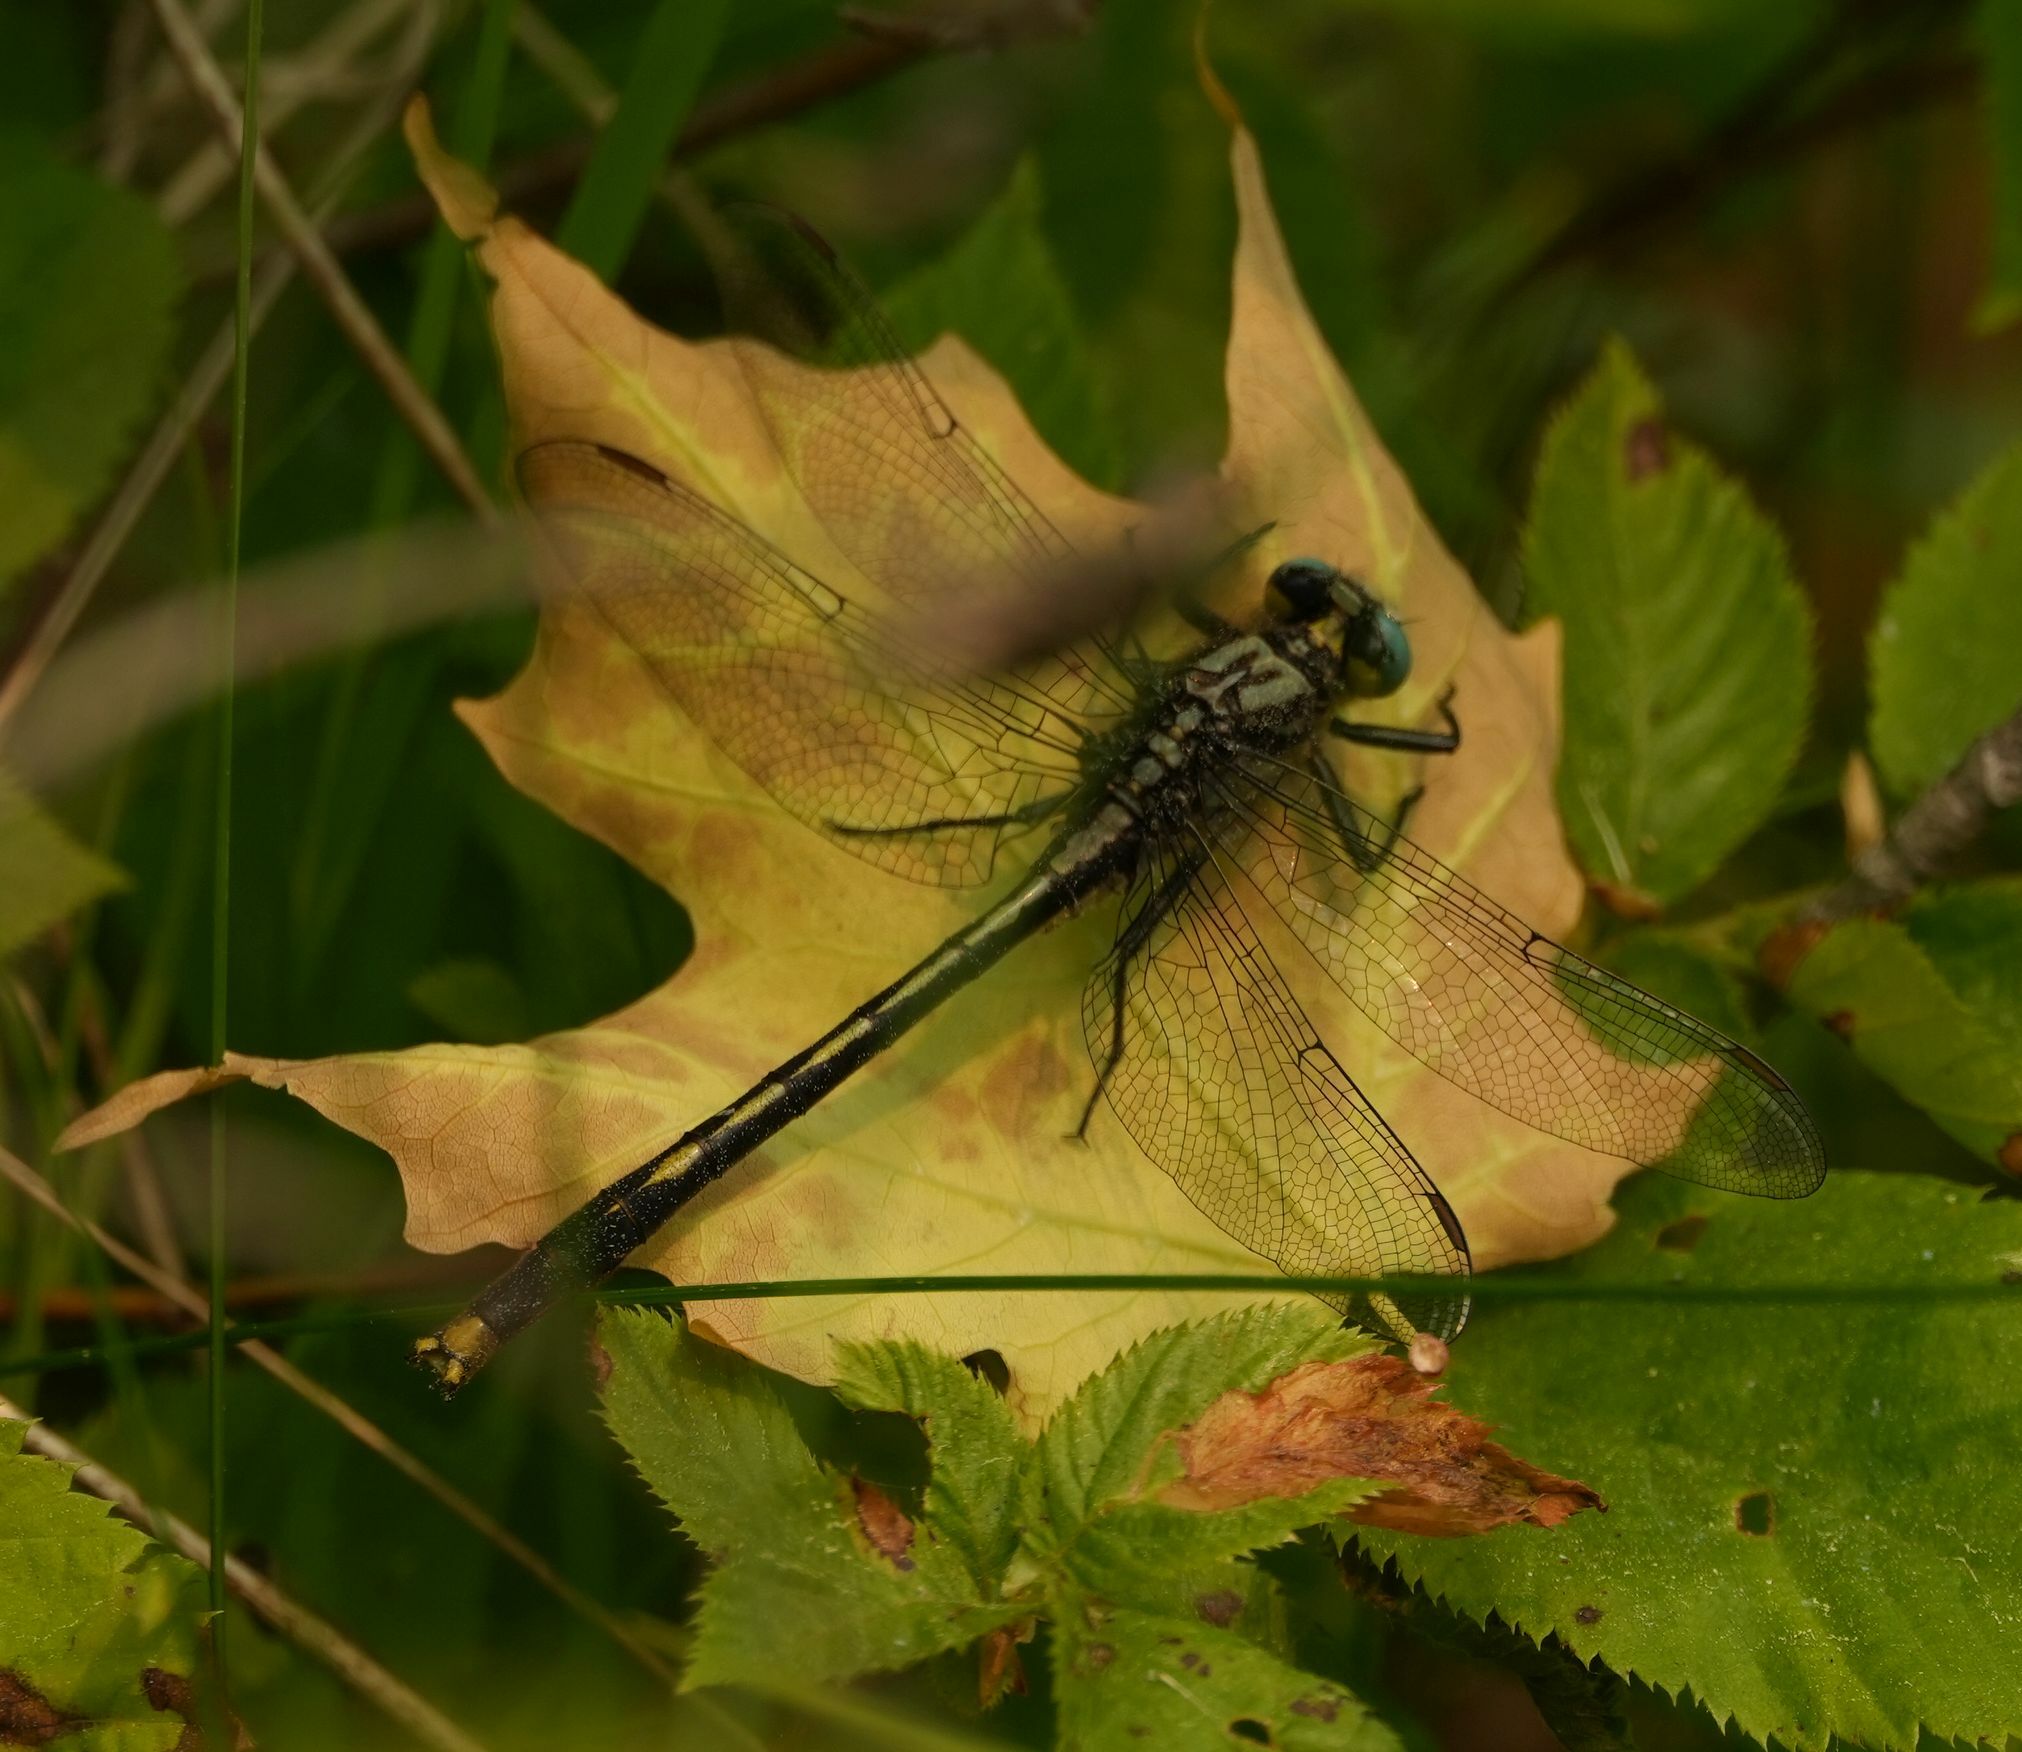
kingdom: Animalia
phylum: Arthropoda
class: Insecta
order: Odonata
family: Gomphidae
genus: Arigomphus
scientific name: Arigomphus furcifer
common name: Lilypad clubtail
